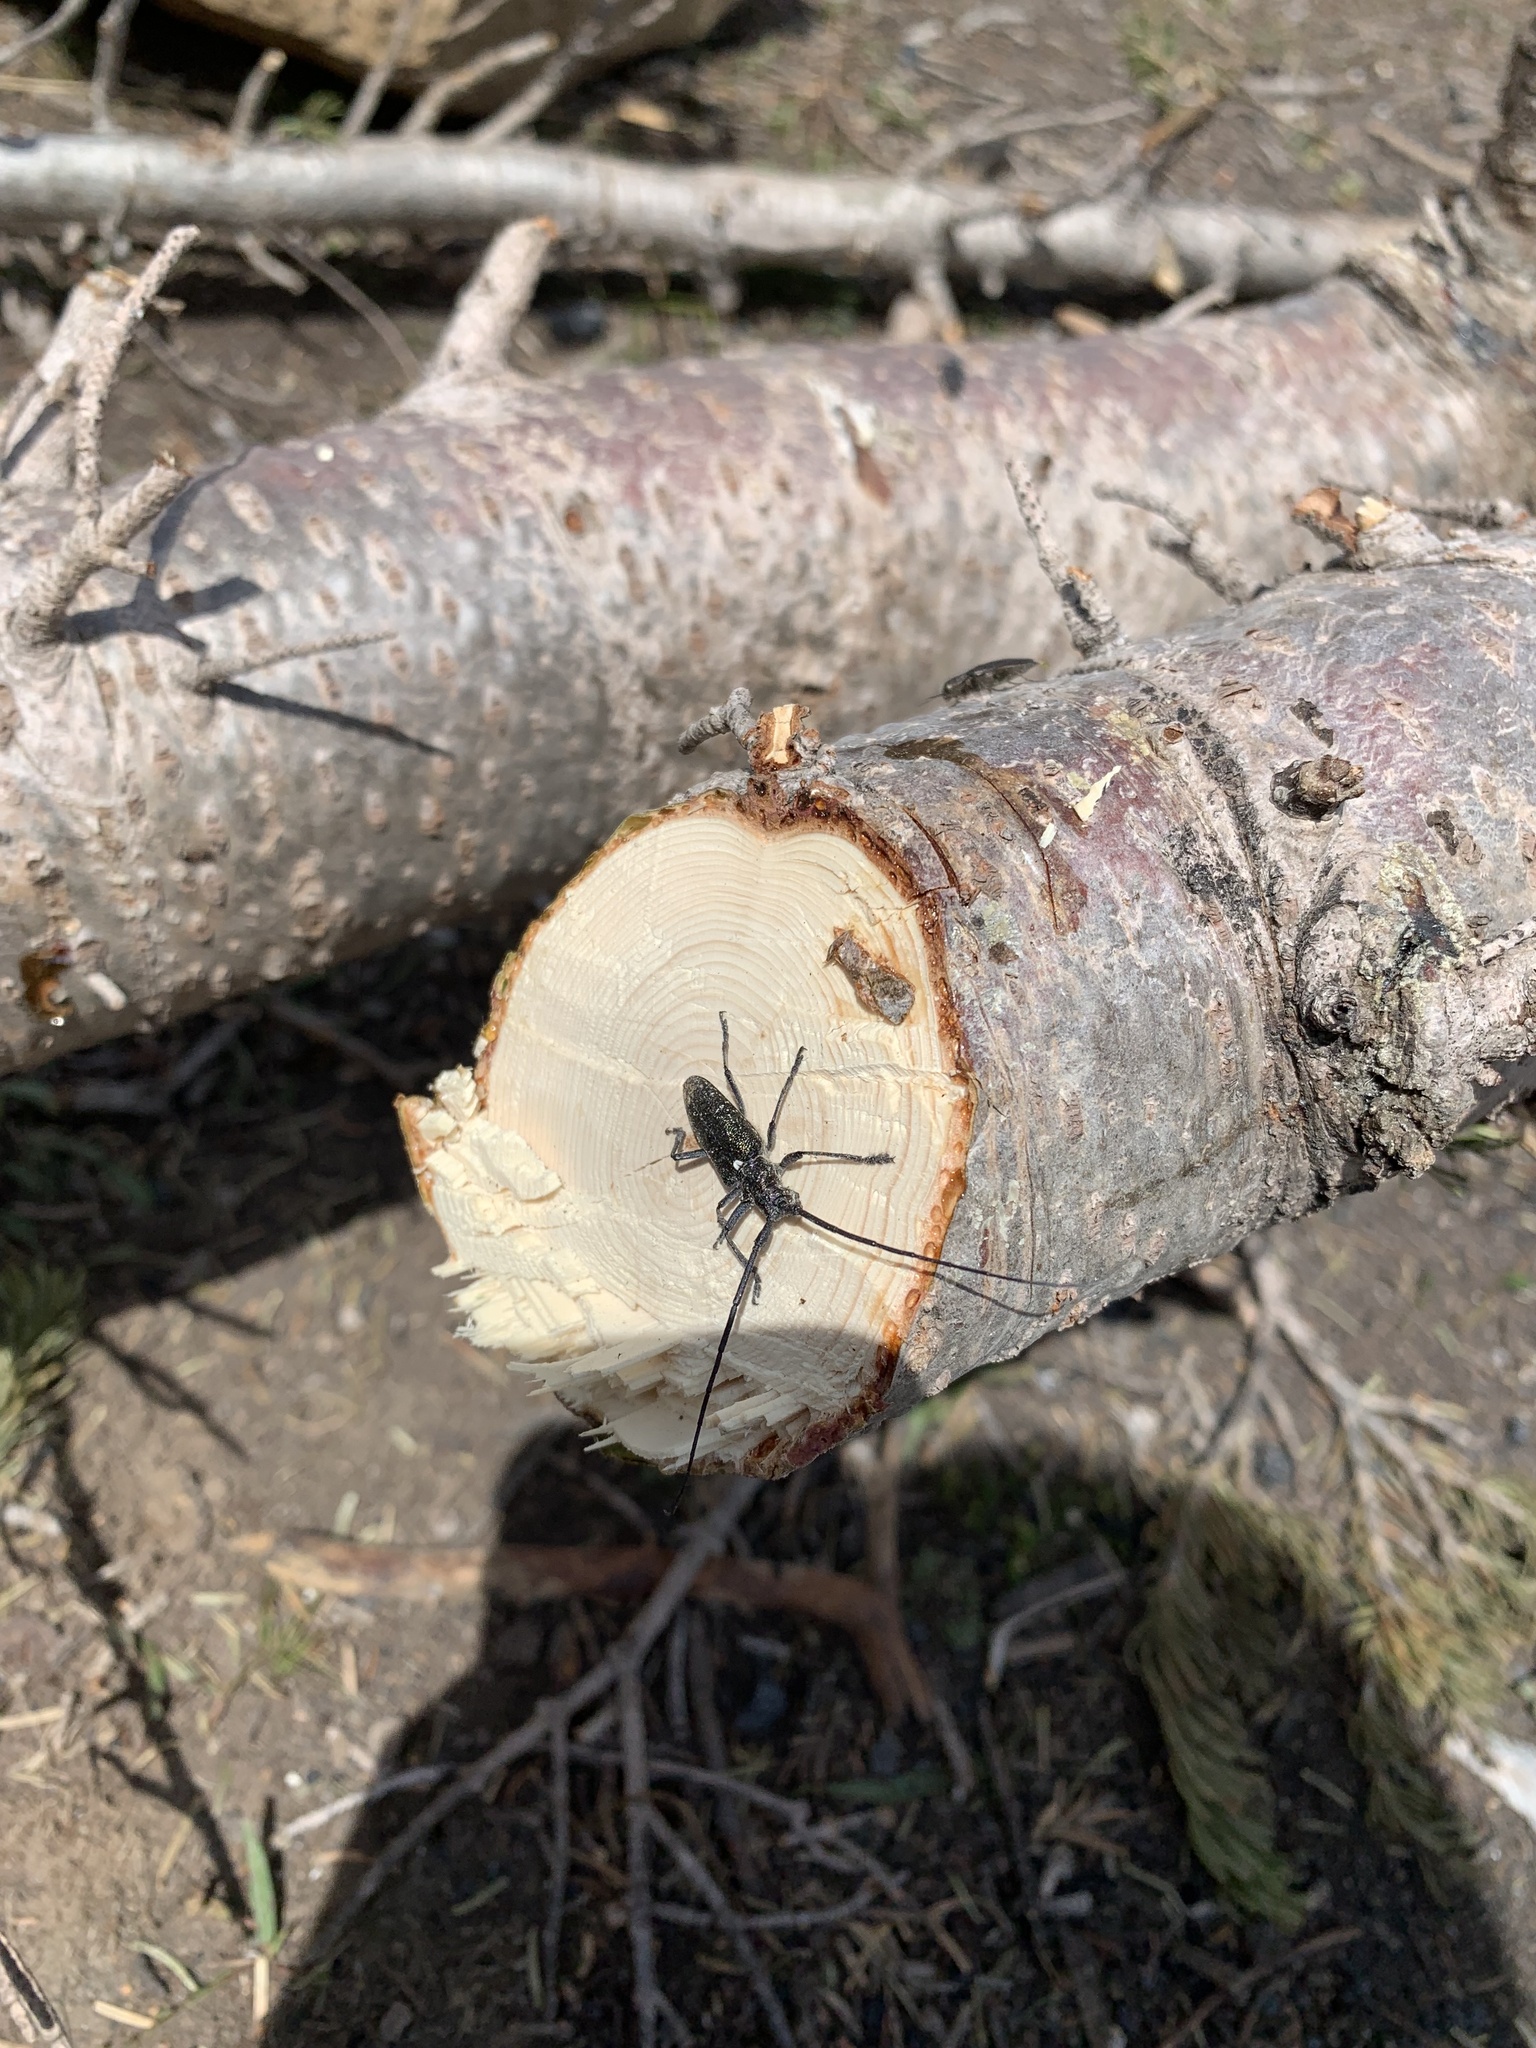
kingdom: Animalia
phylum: Arthropoda
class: Insecta
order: Coleoptera
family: Cerambycidae
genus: Monochamus
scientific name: Monochamus scutellatus
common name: White-spotted sawyer beetle
